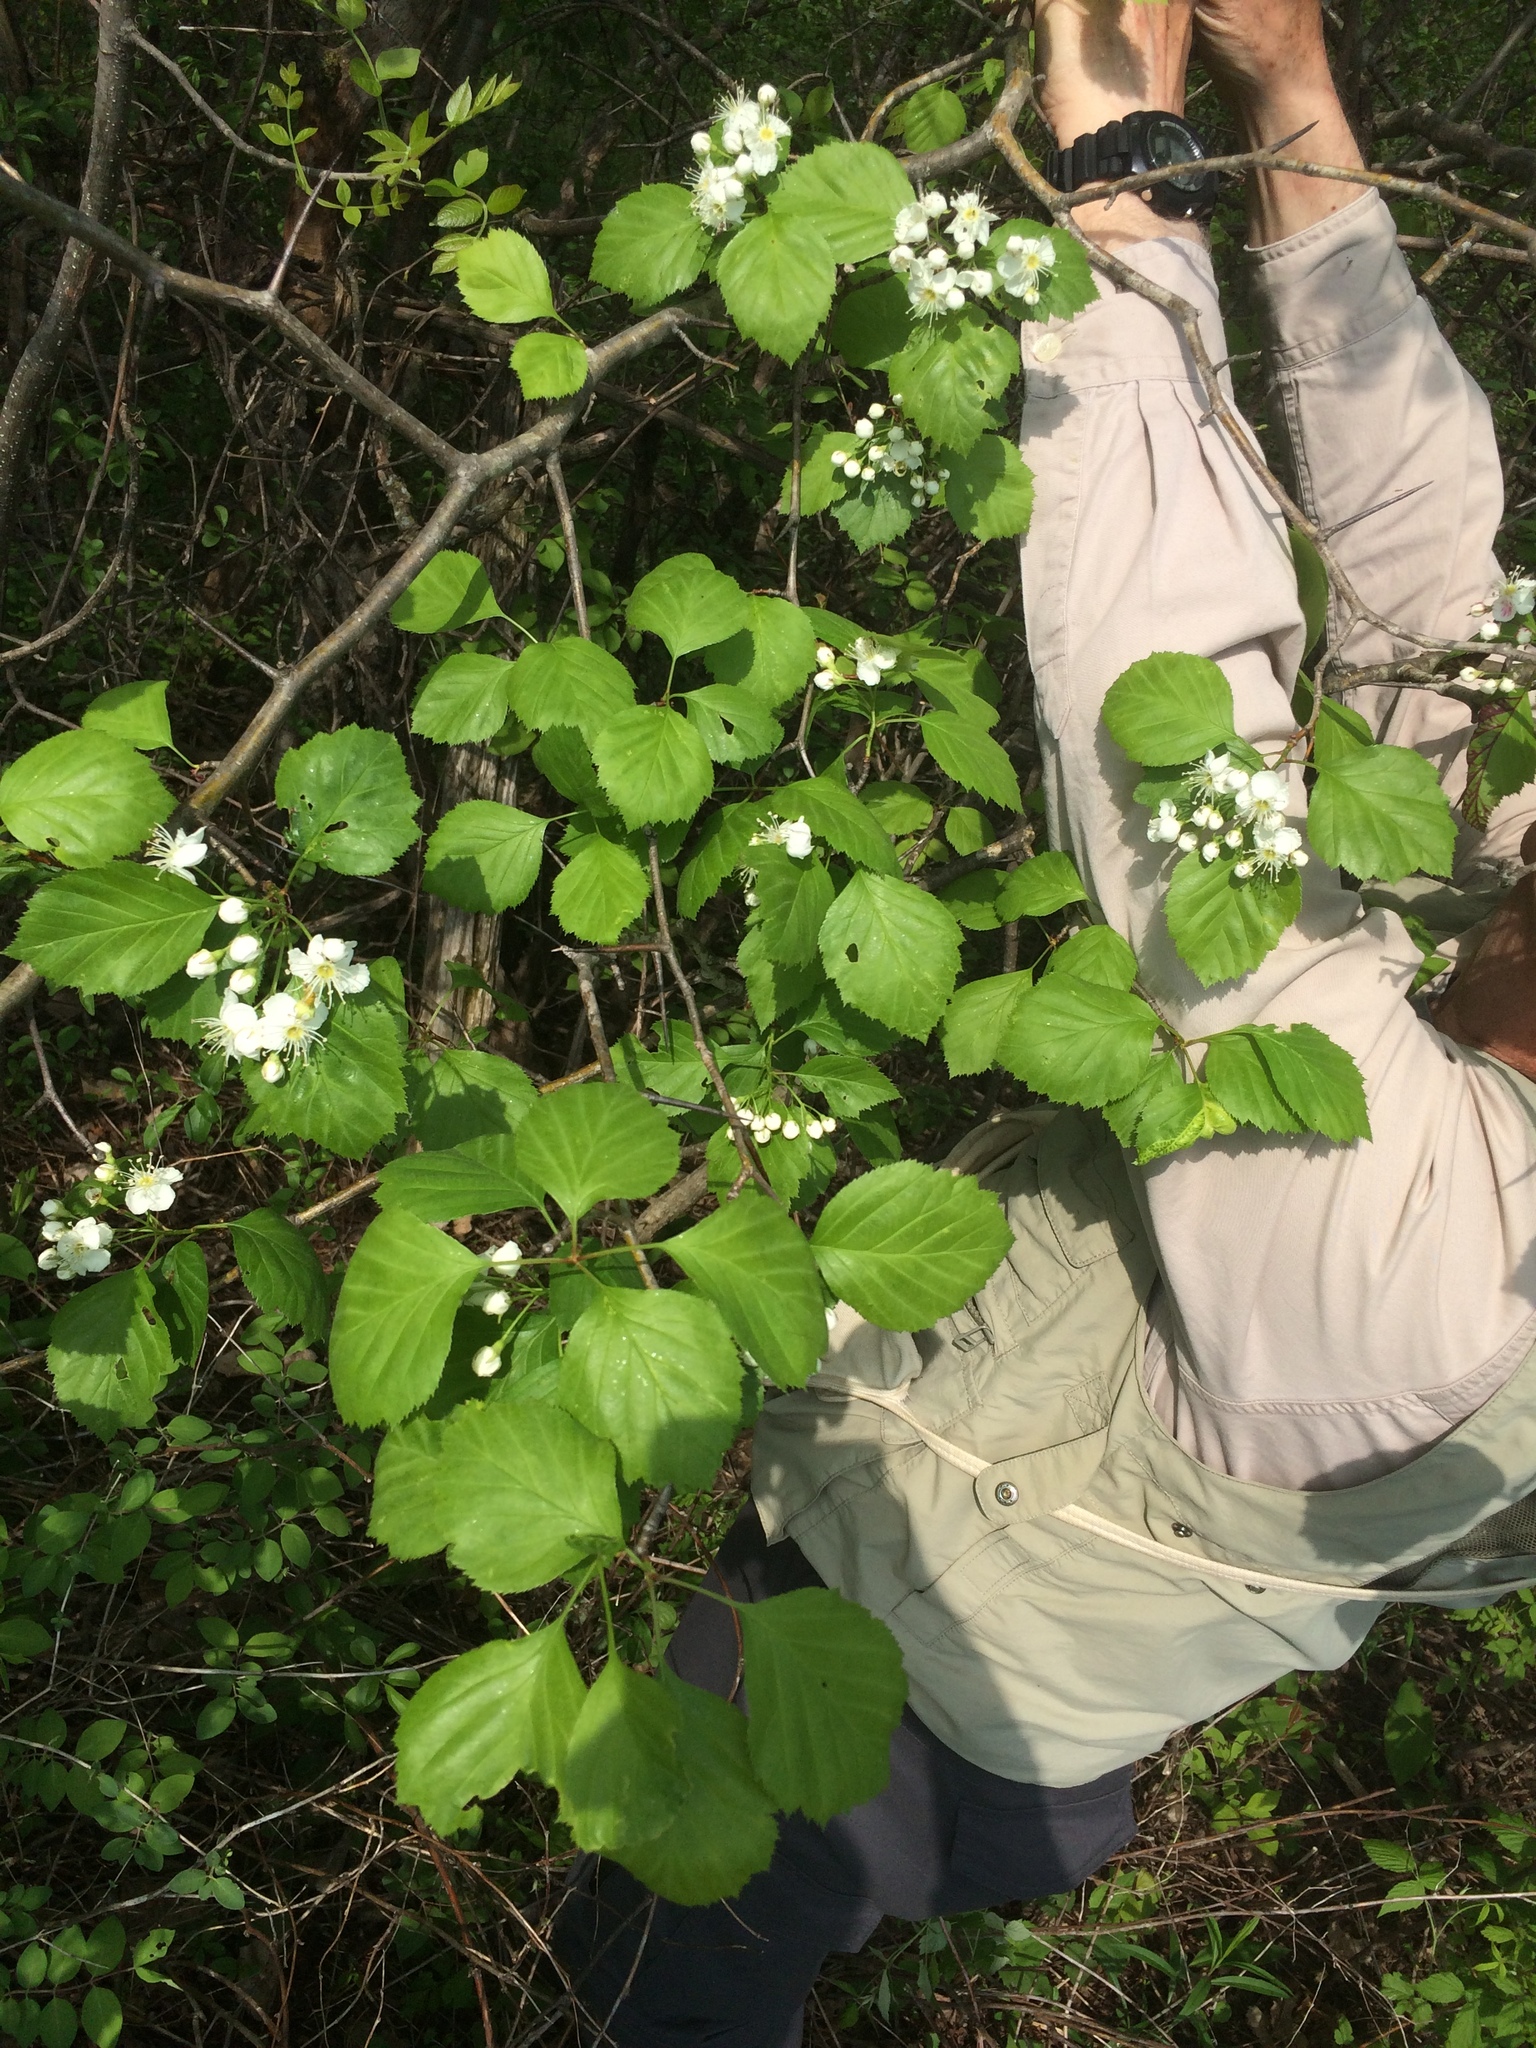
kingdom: Plantae
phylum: Tracheophyta
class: Magnoliopsida
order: Rosales
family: Rosaceae
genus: Crataegus
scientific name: Crataegus scabrida
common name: Rough hawthorn
